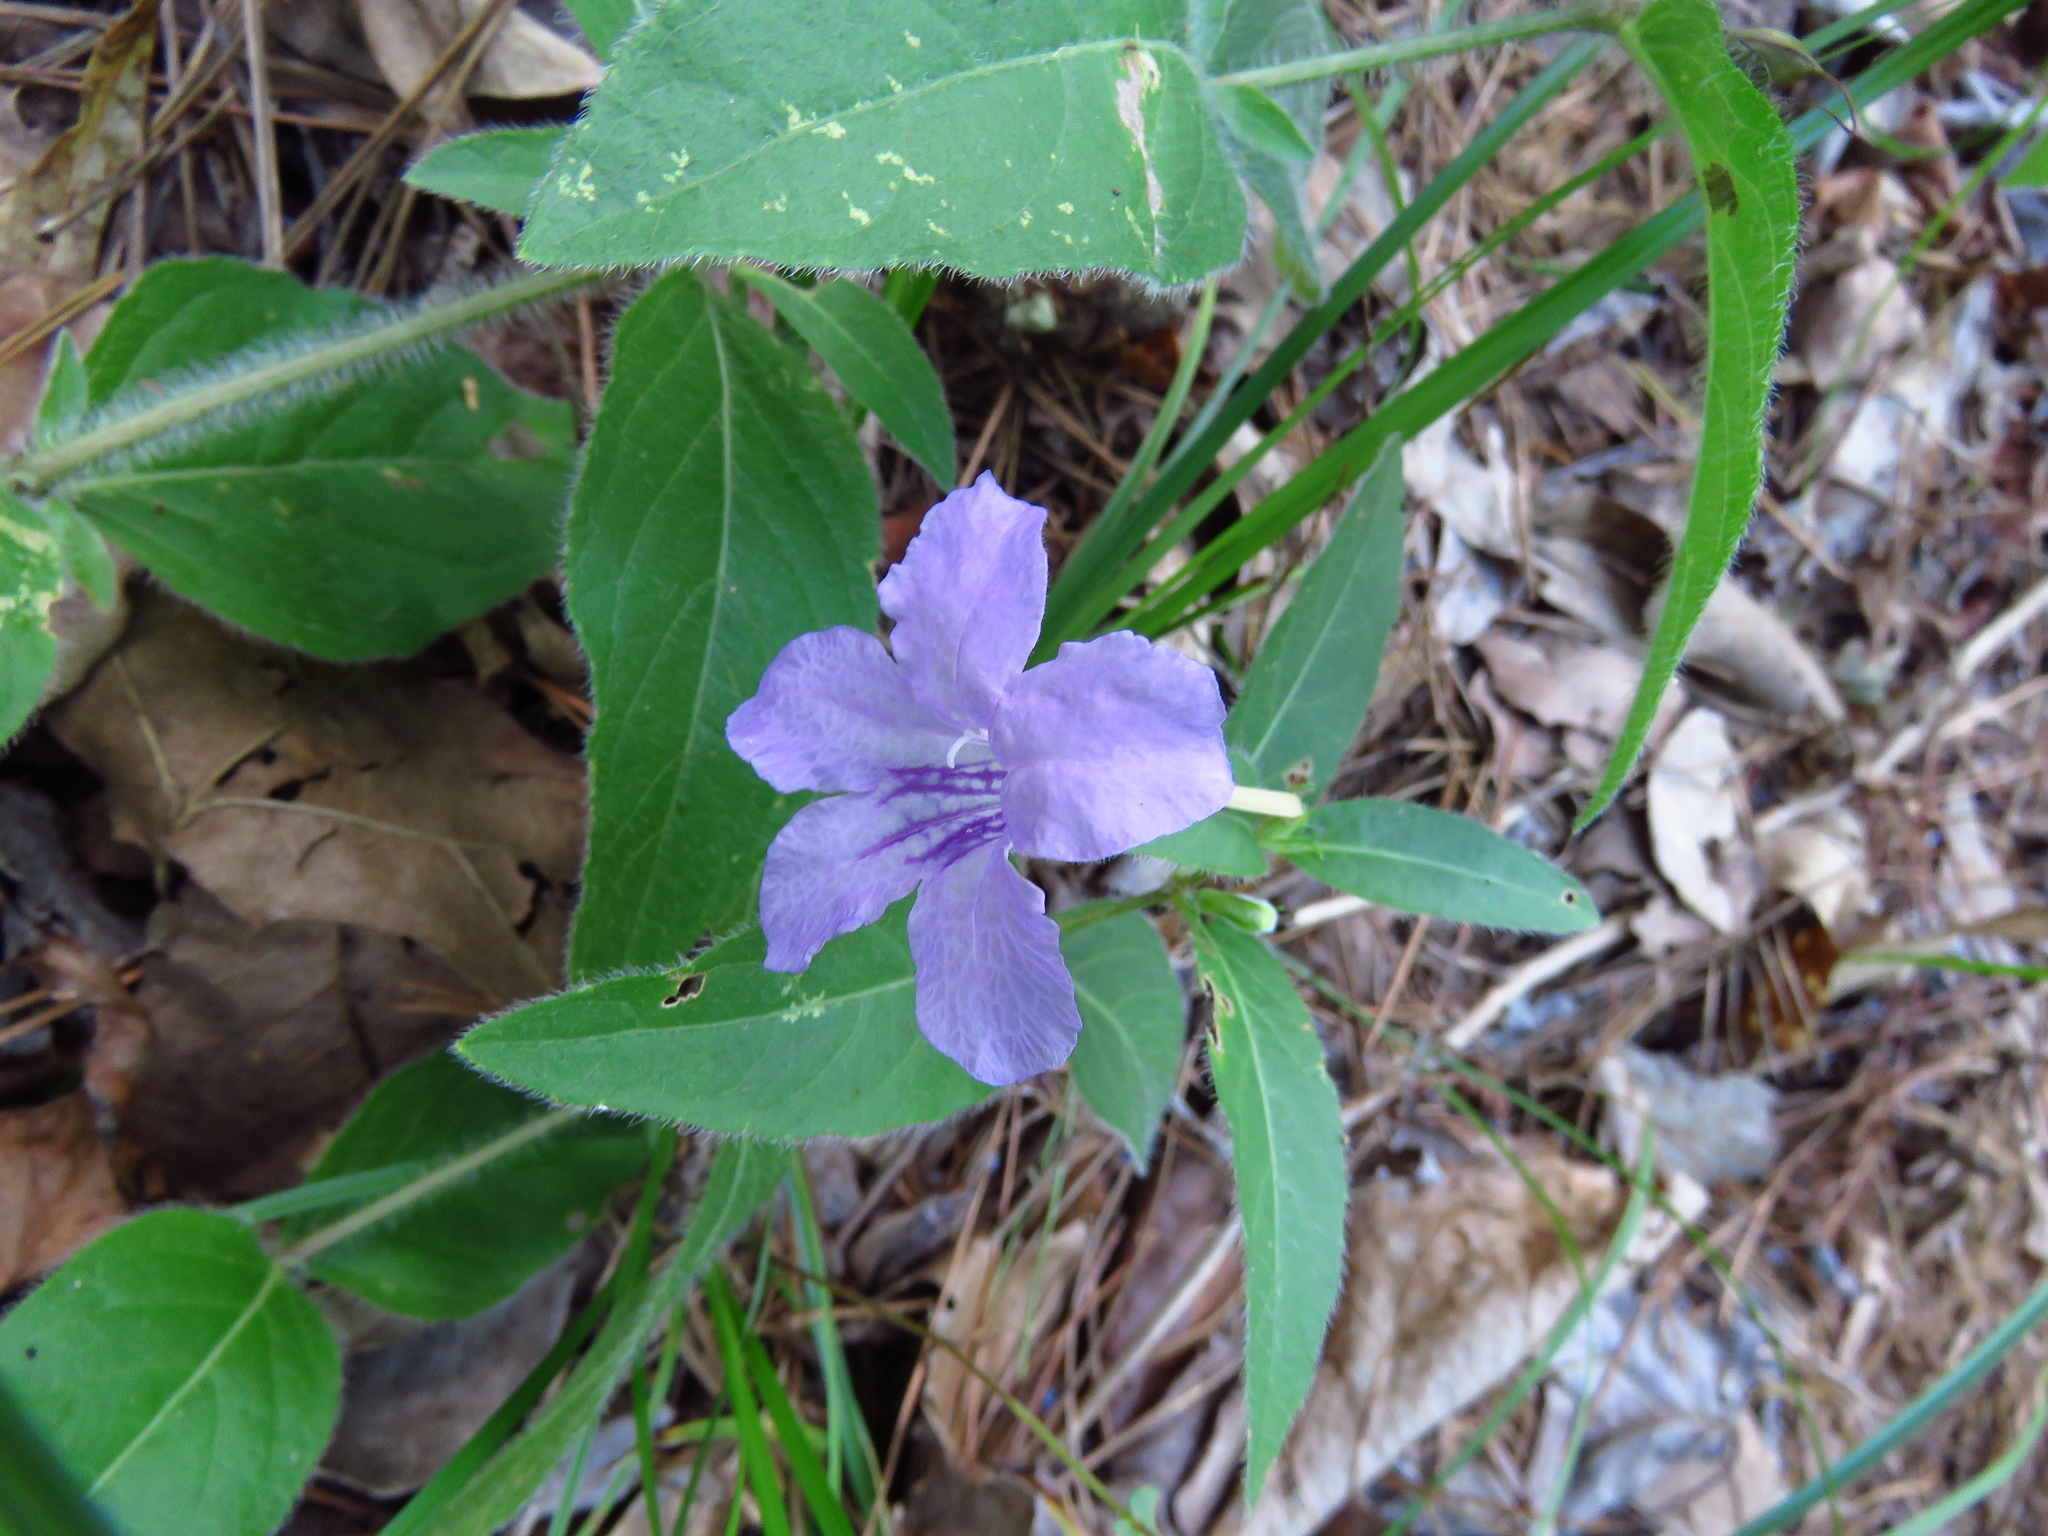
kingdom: Plantae
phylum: Tracheophyta
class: Magnoliopsida
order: Lamiales
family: Acanthaceae
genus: Ruellia
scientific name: Ruellia humilis
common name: Fringe-leaf ruellia
